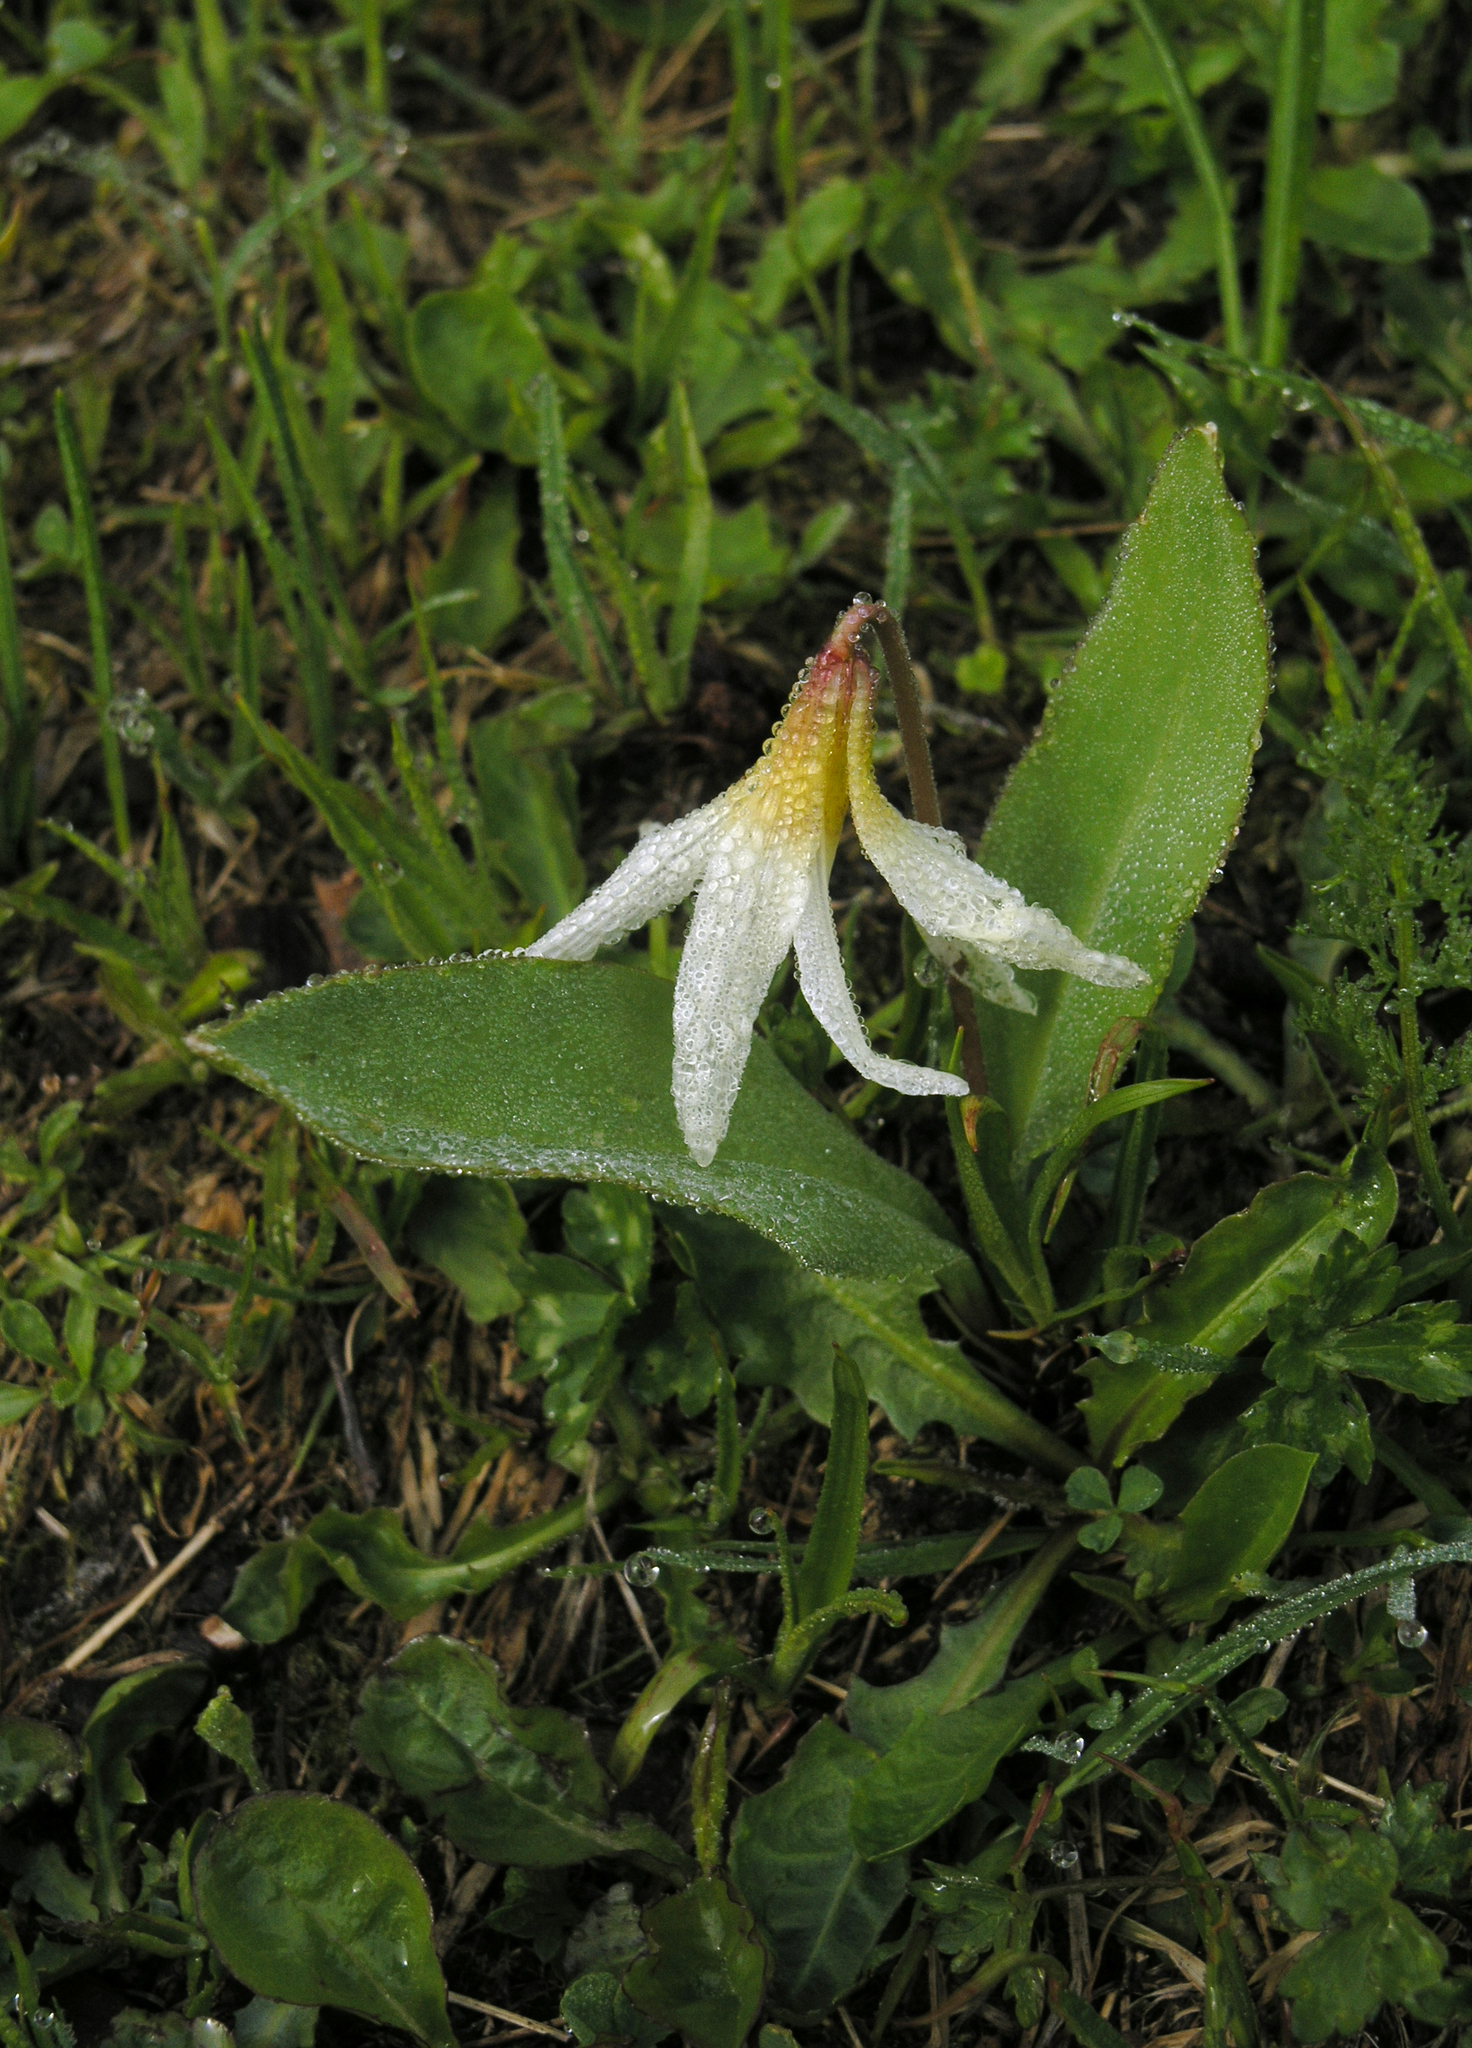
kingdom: Plantae
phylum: Tracheophyta
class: Liliopsida
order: Liliales
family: Liliaceae
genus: Erythronium
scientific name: Erythronium caucasicum
